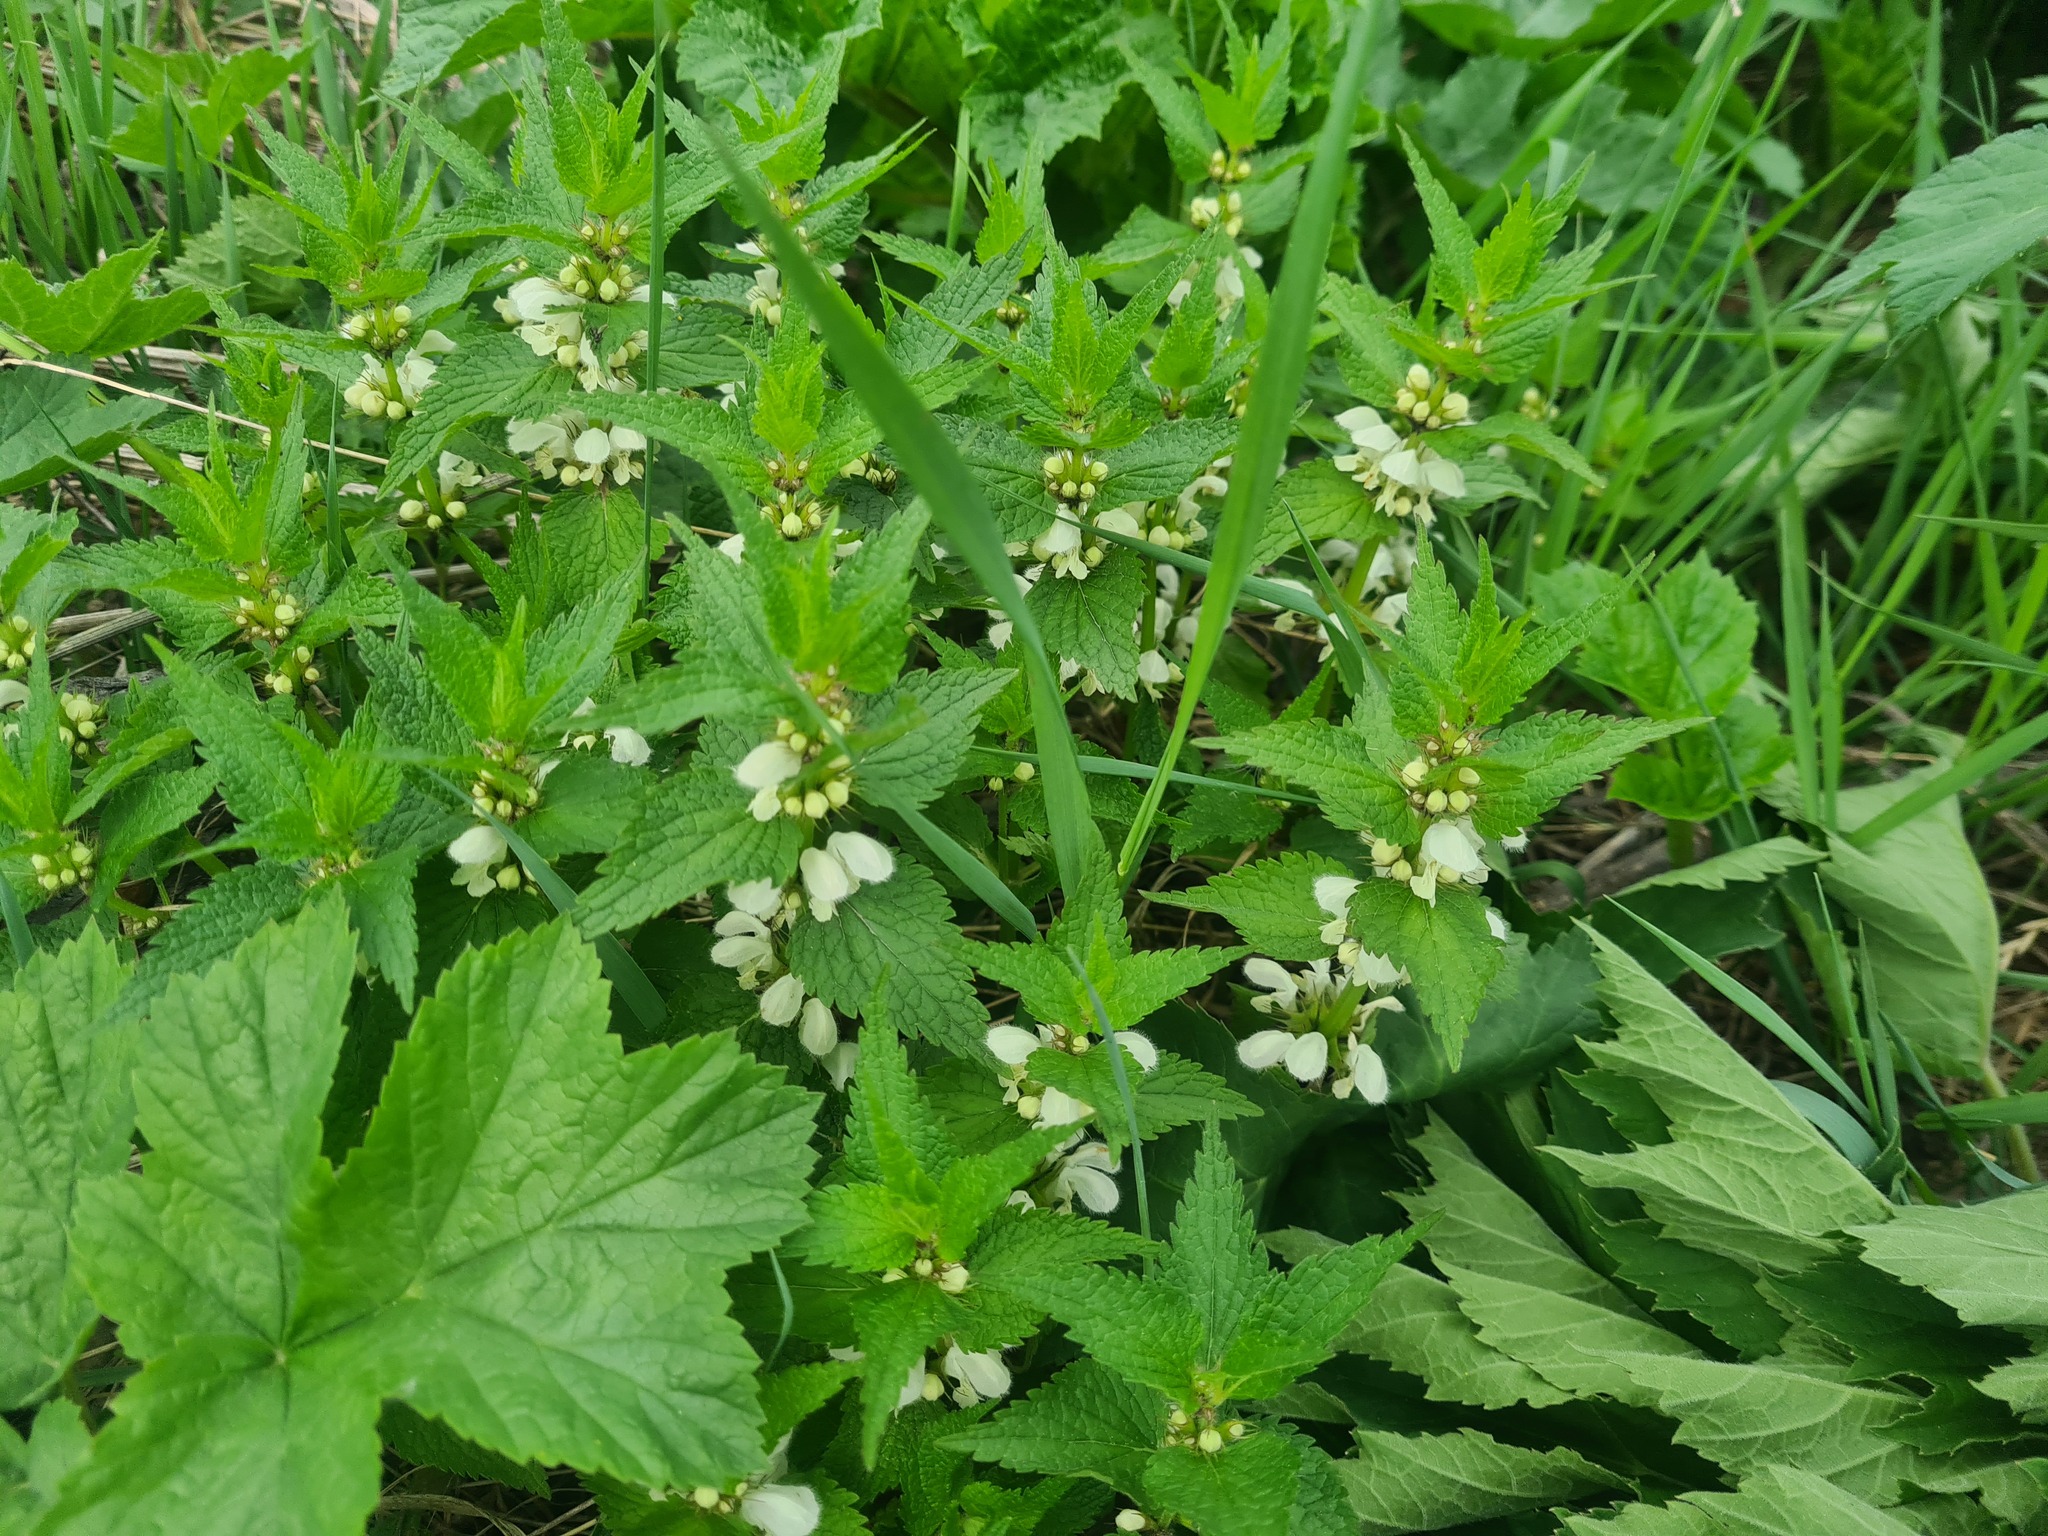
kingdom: Plantae
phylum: Tracheophyta
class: Magnoliopsida
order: Lamiales
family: Lamiaceae
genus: Lamium
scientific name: Lamium album
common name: White dead-nettle
